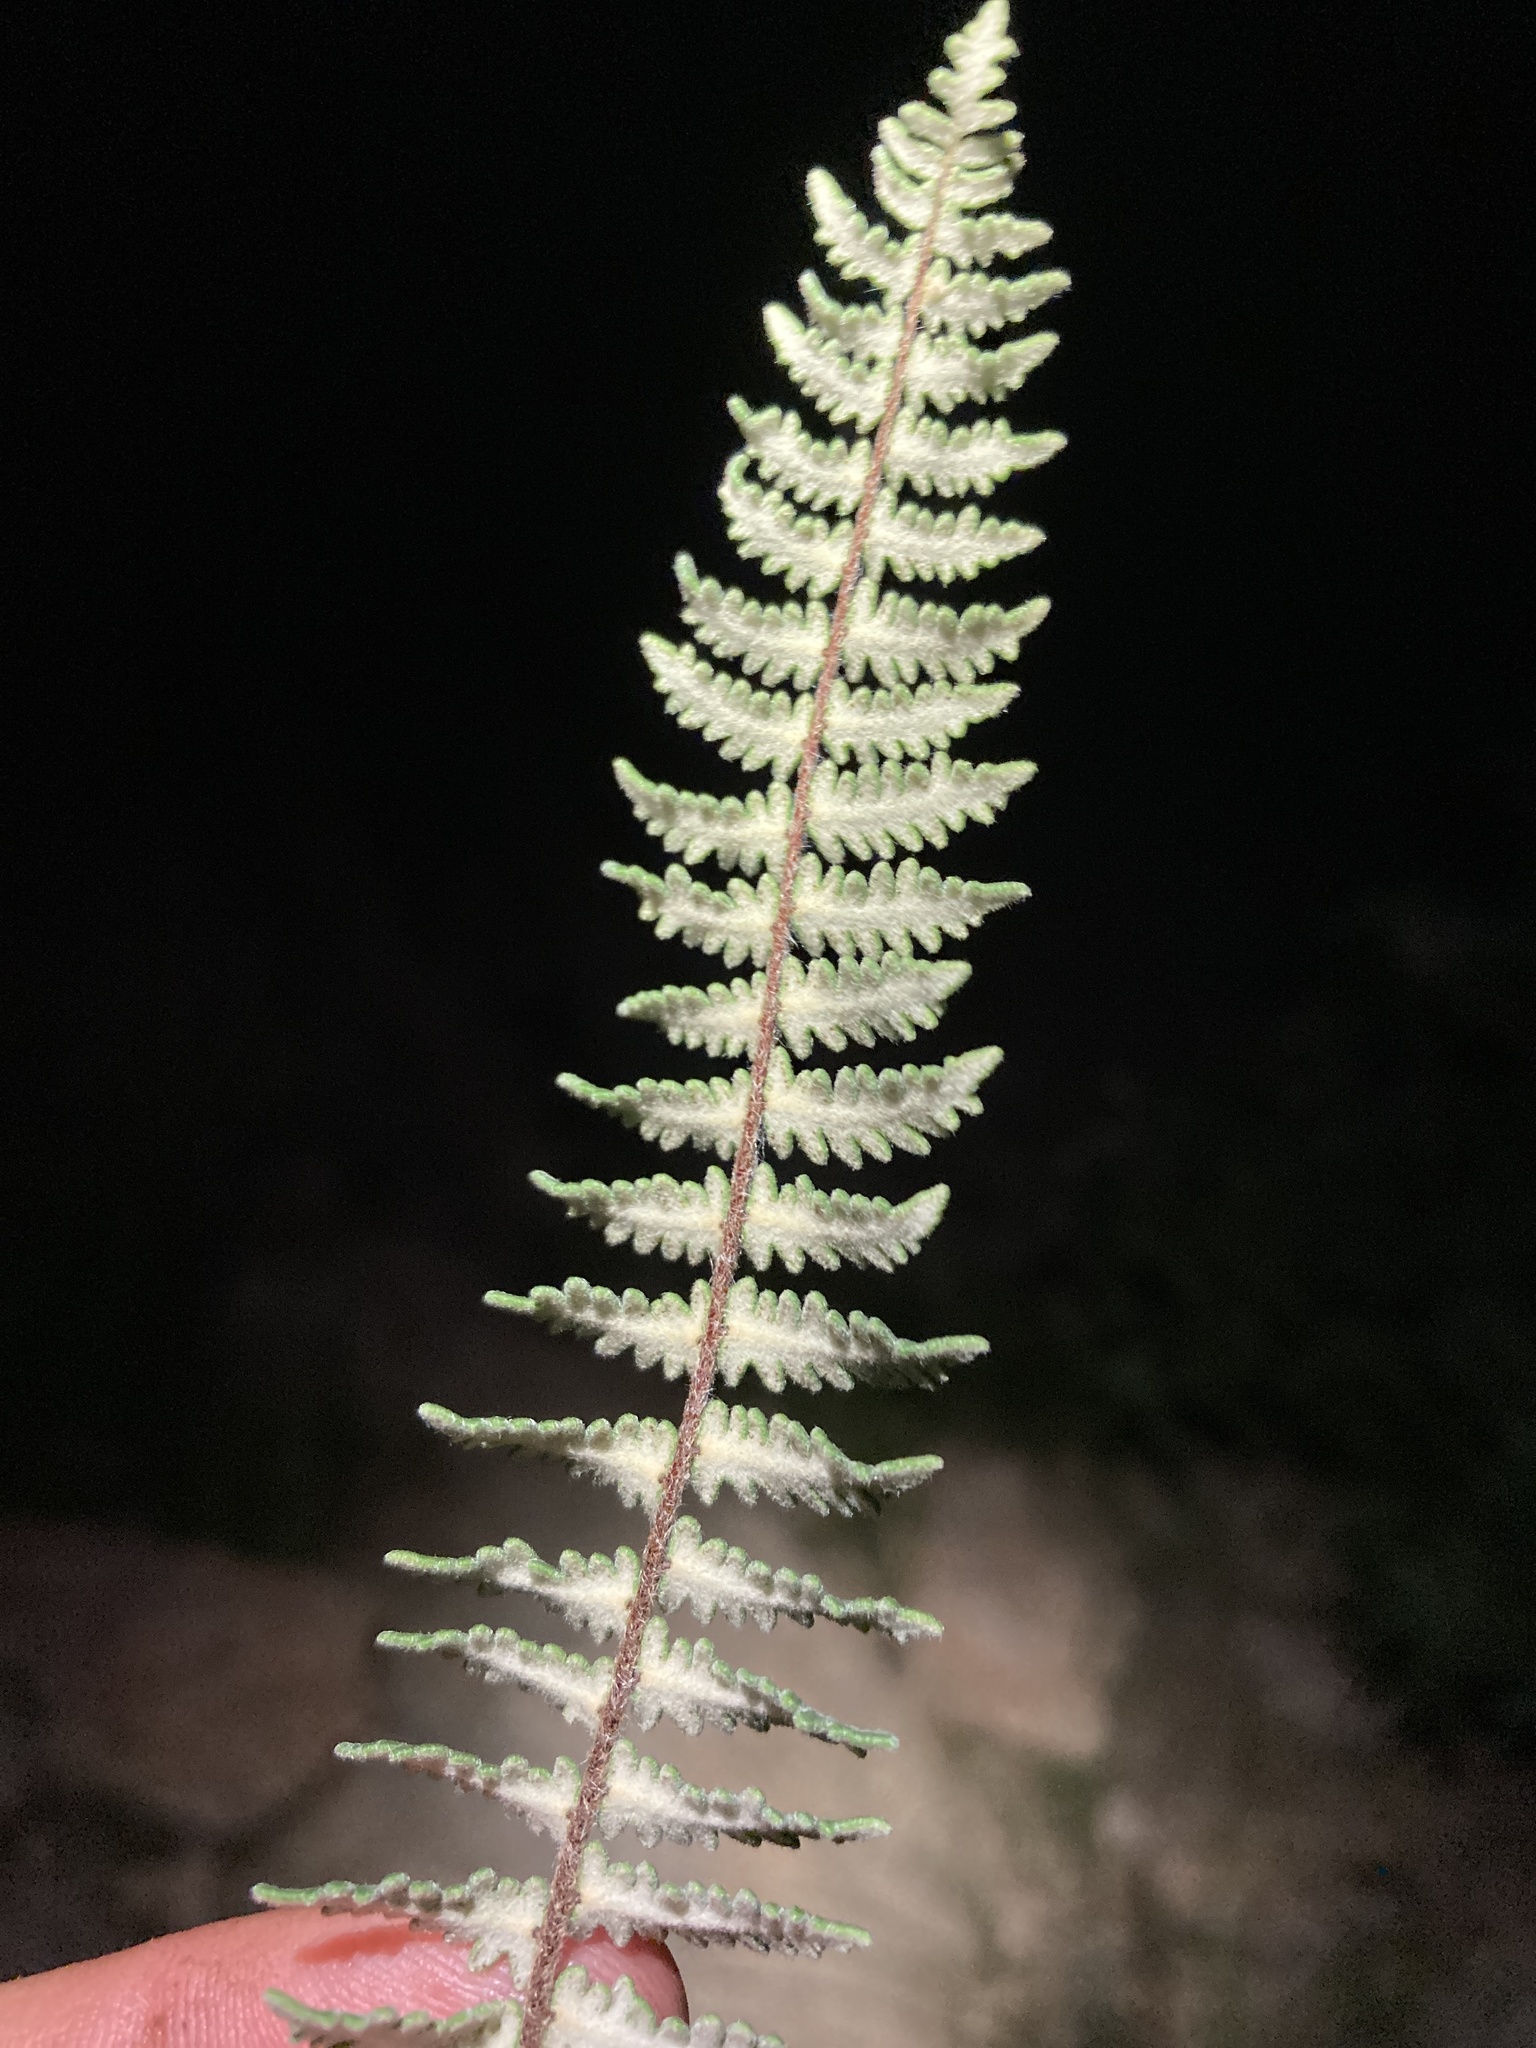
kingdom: Plantae
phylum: Tracheophyta
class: Polypodiopsida
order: Polypodiales
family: Pteridaceae
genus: Myriopteris
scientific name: Myriopteris aurea
